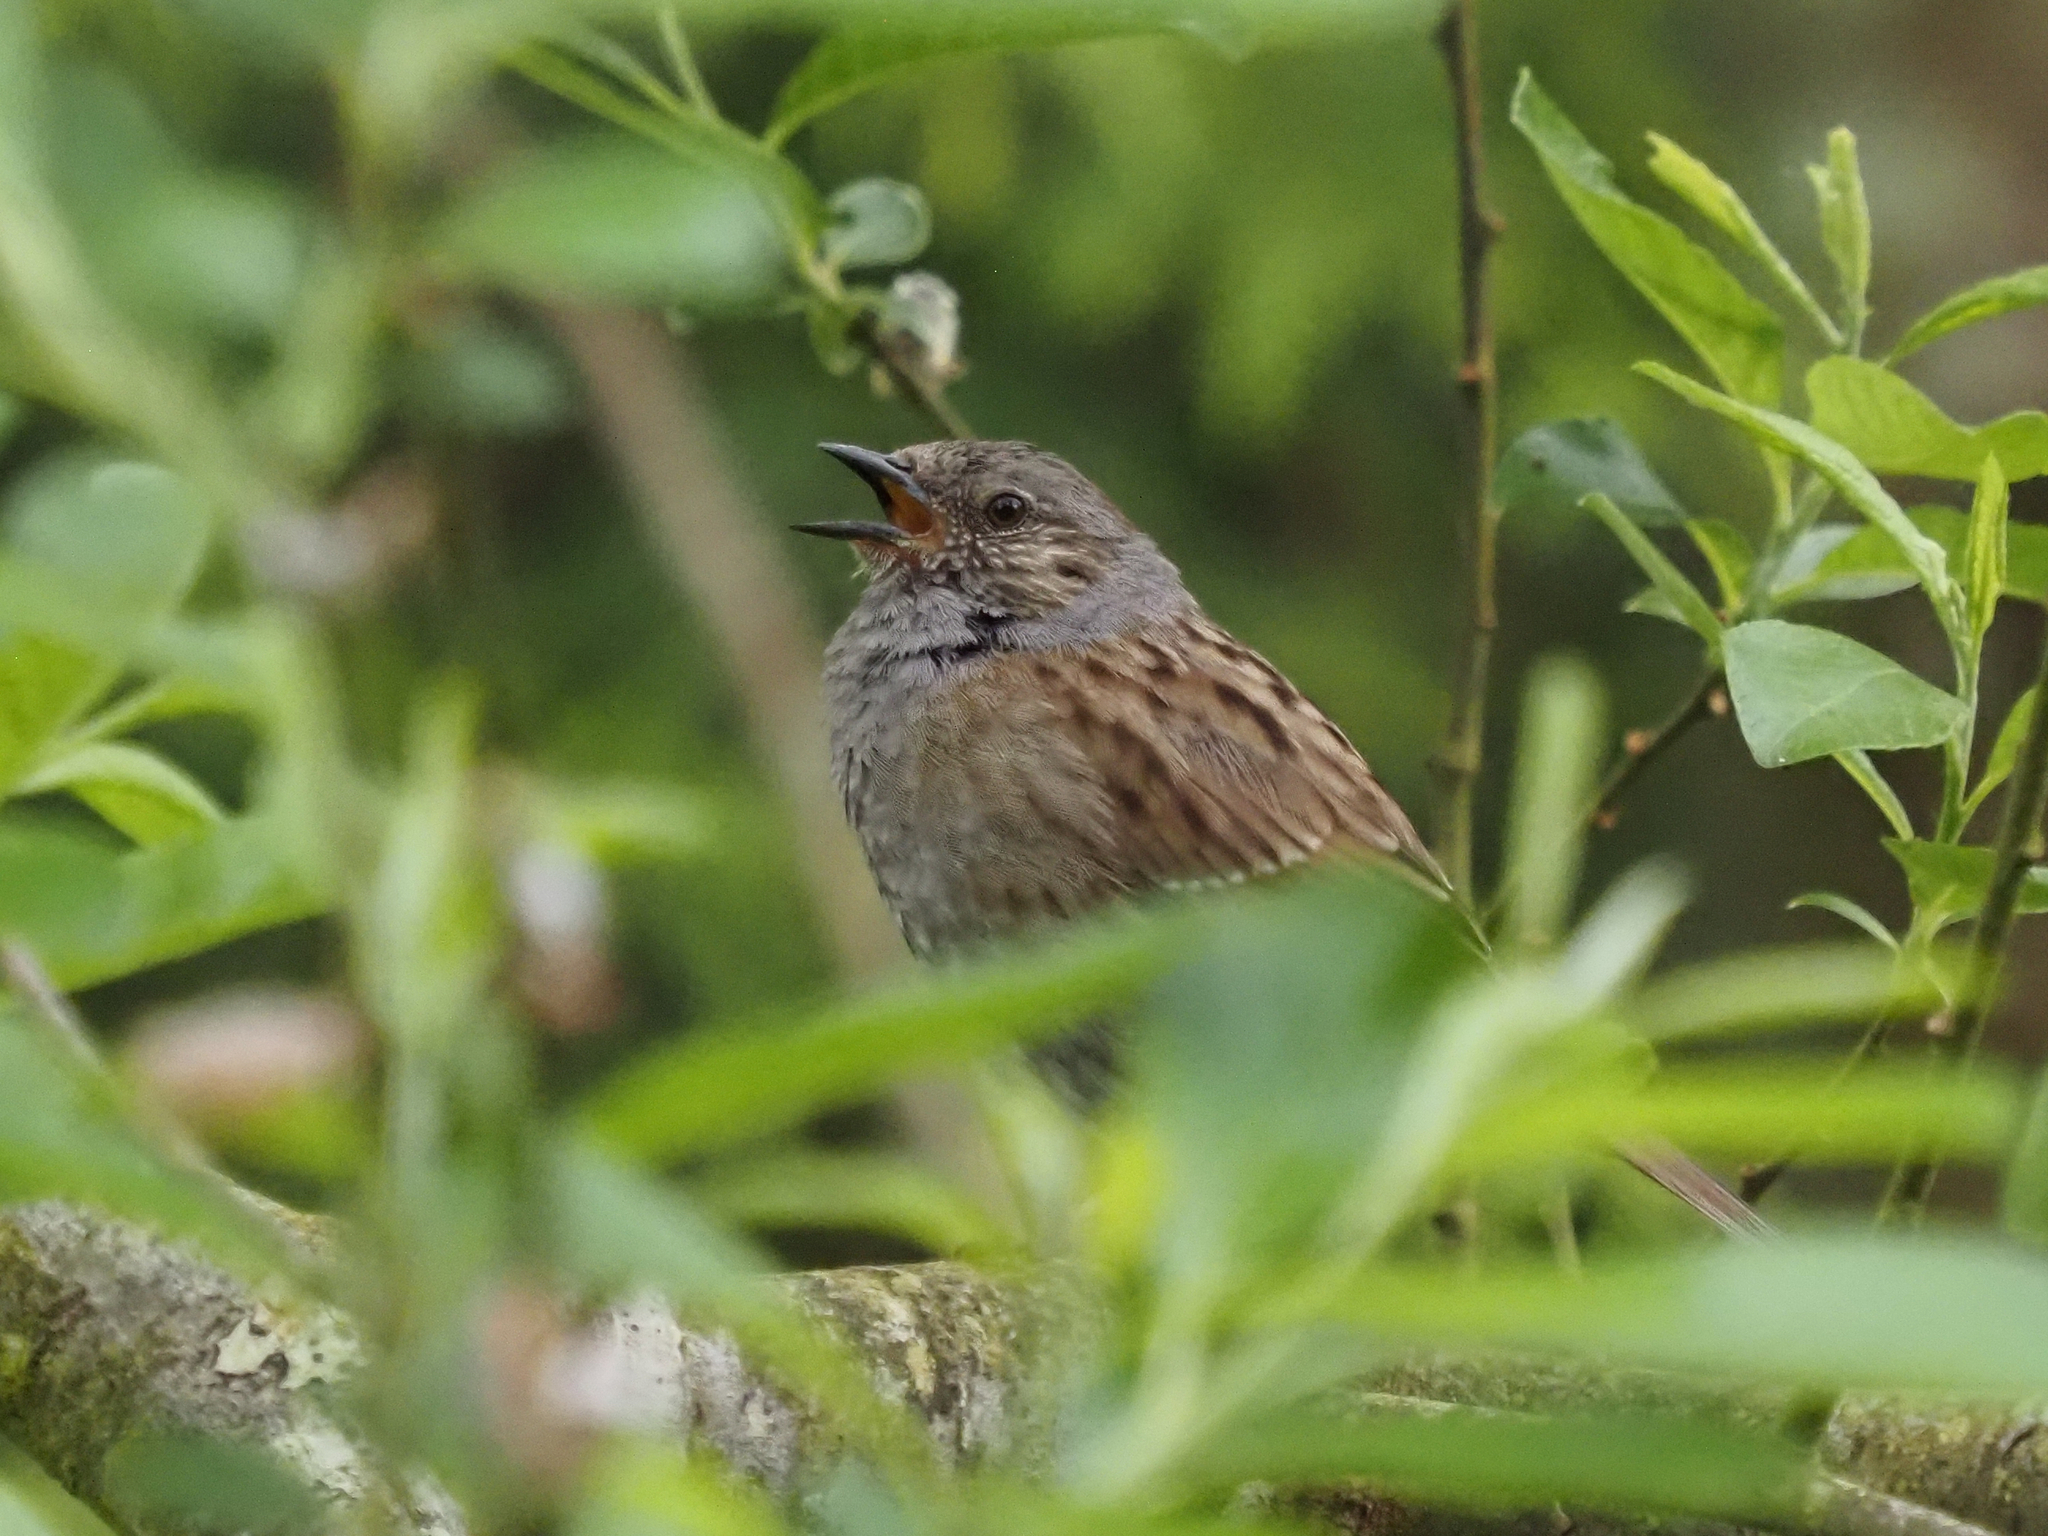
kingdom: Animalia
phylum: Chordata
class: Aves
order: Passeriformes
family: Prunellidae
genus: Prunella
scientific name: Prunella modularis
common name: Dunnock
